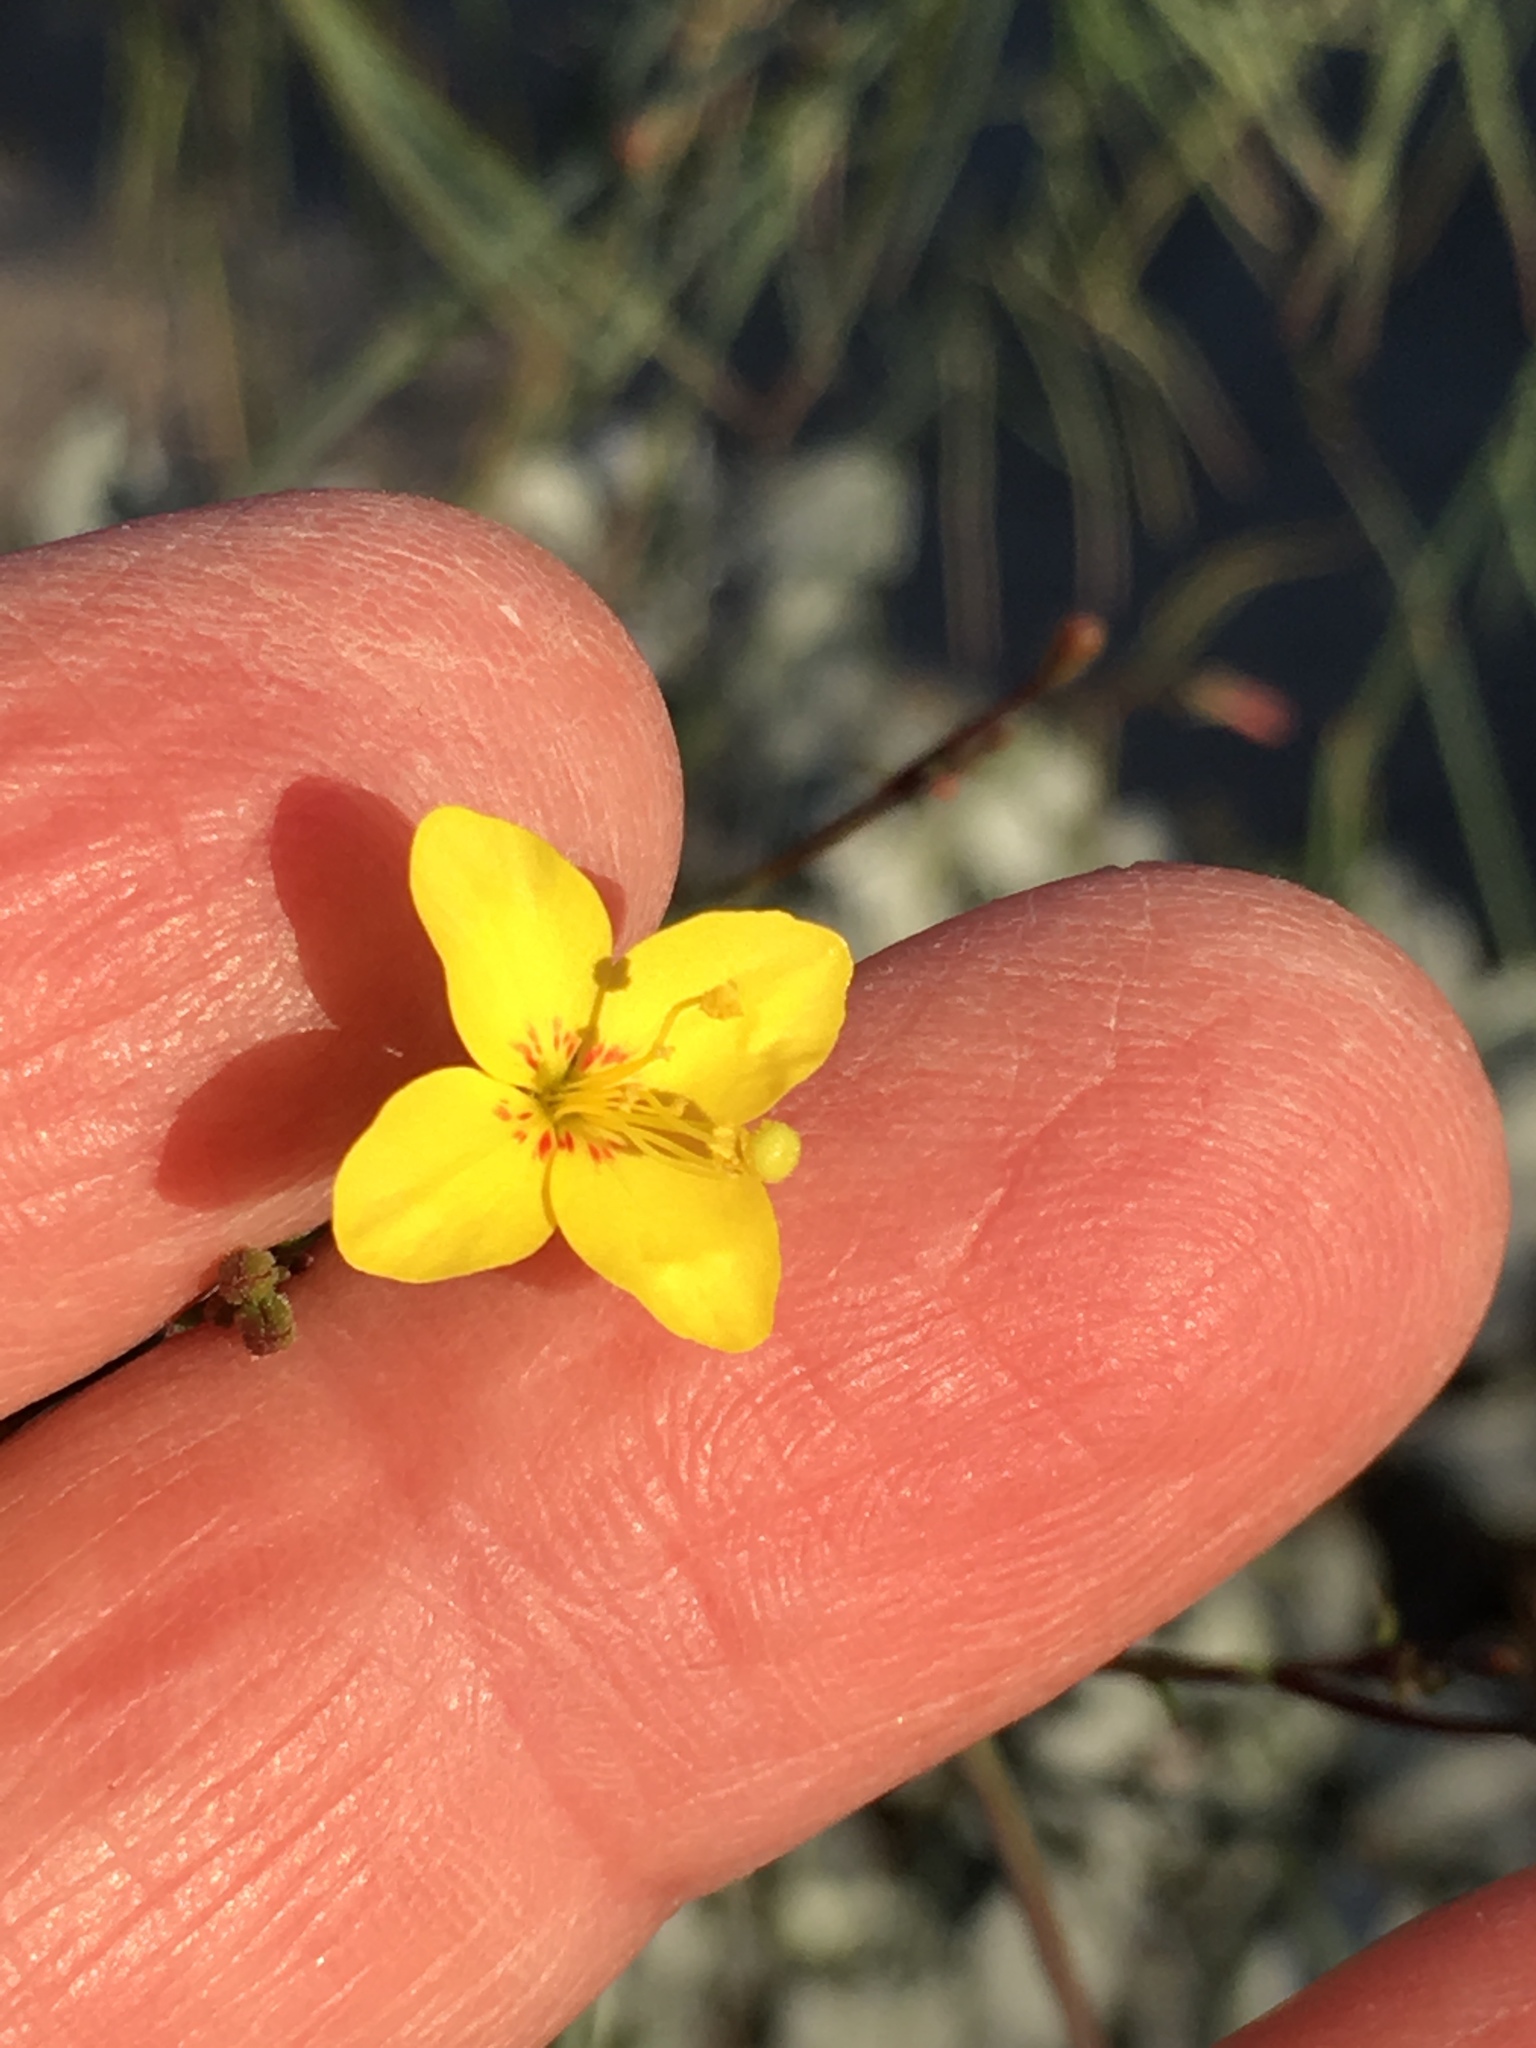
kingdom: Plantae
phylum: Tracheophyta
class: Magnoliopsida
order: Myrtales
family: Onagraceae
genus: Eulobus
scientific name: Eulobus californicus
